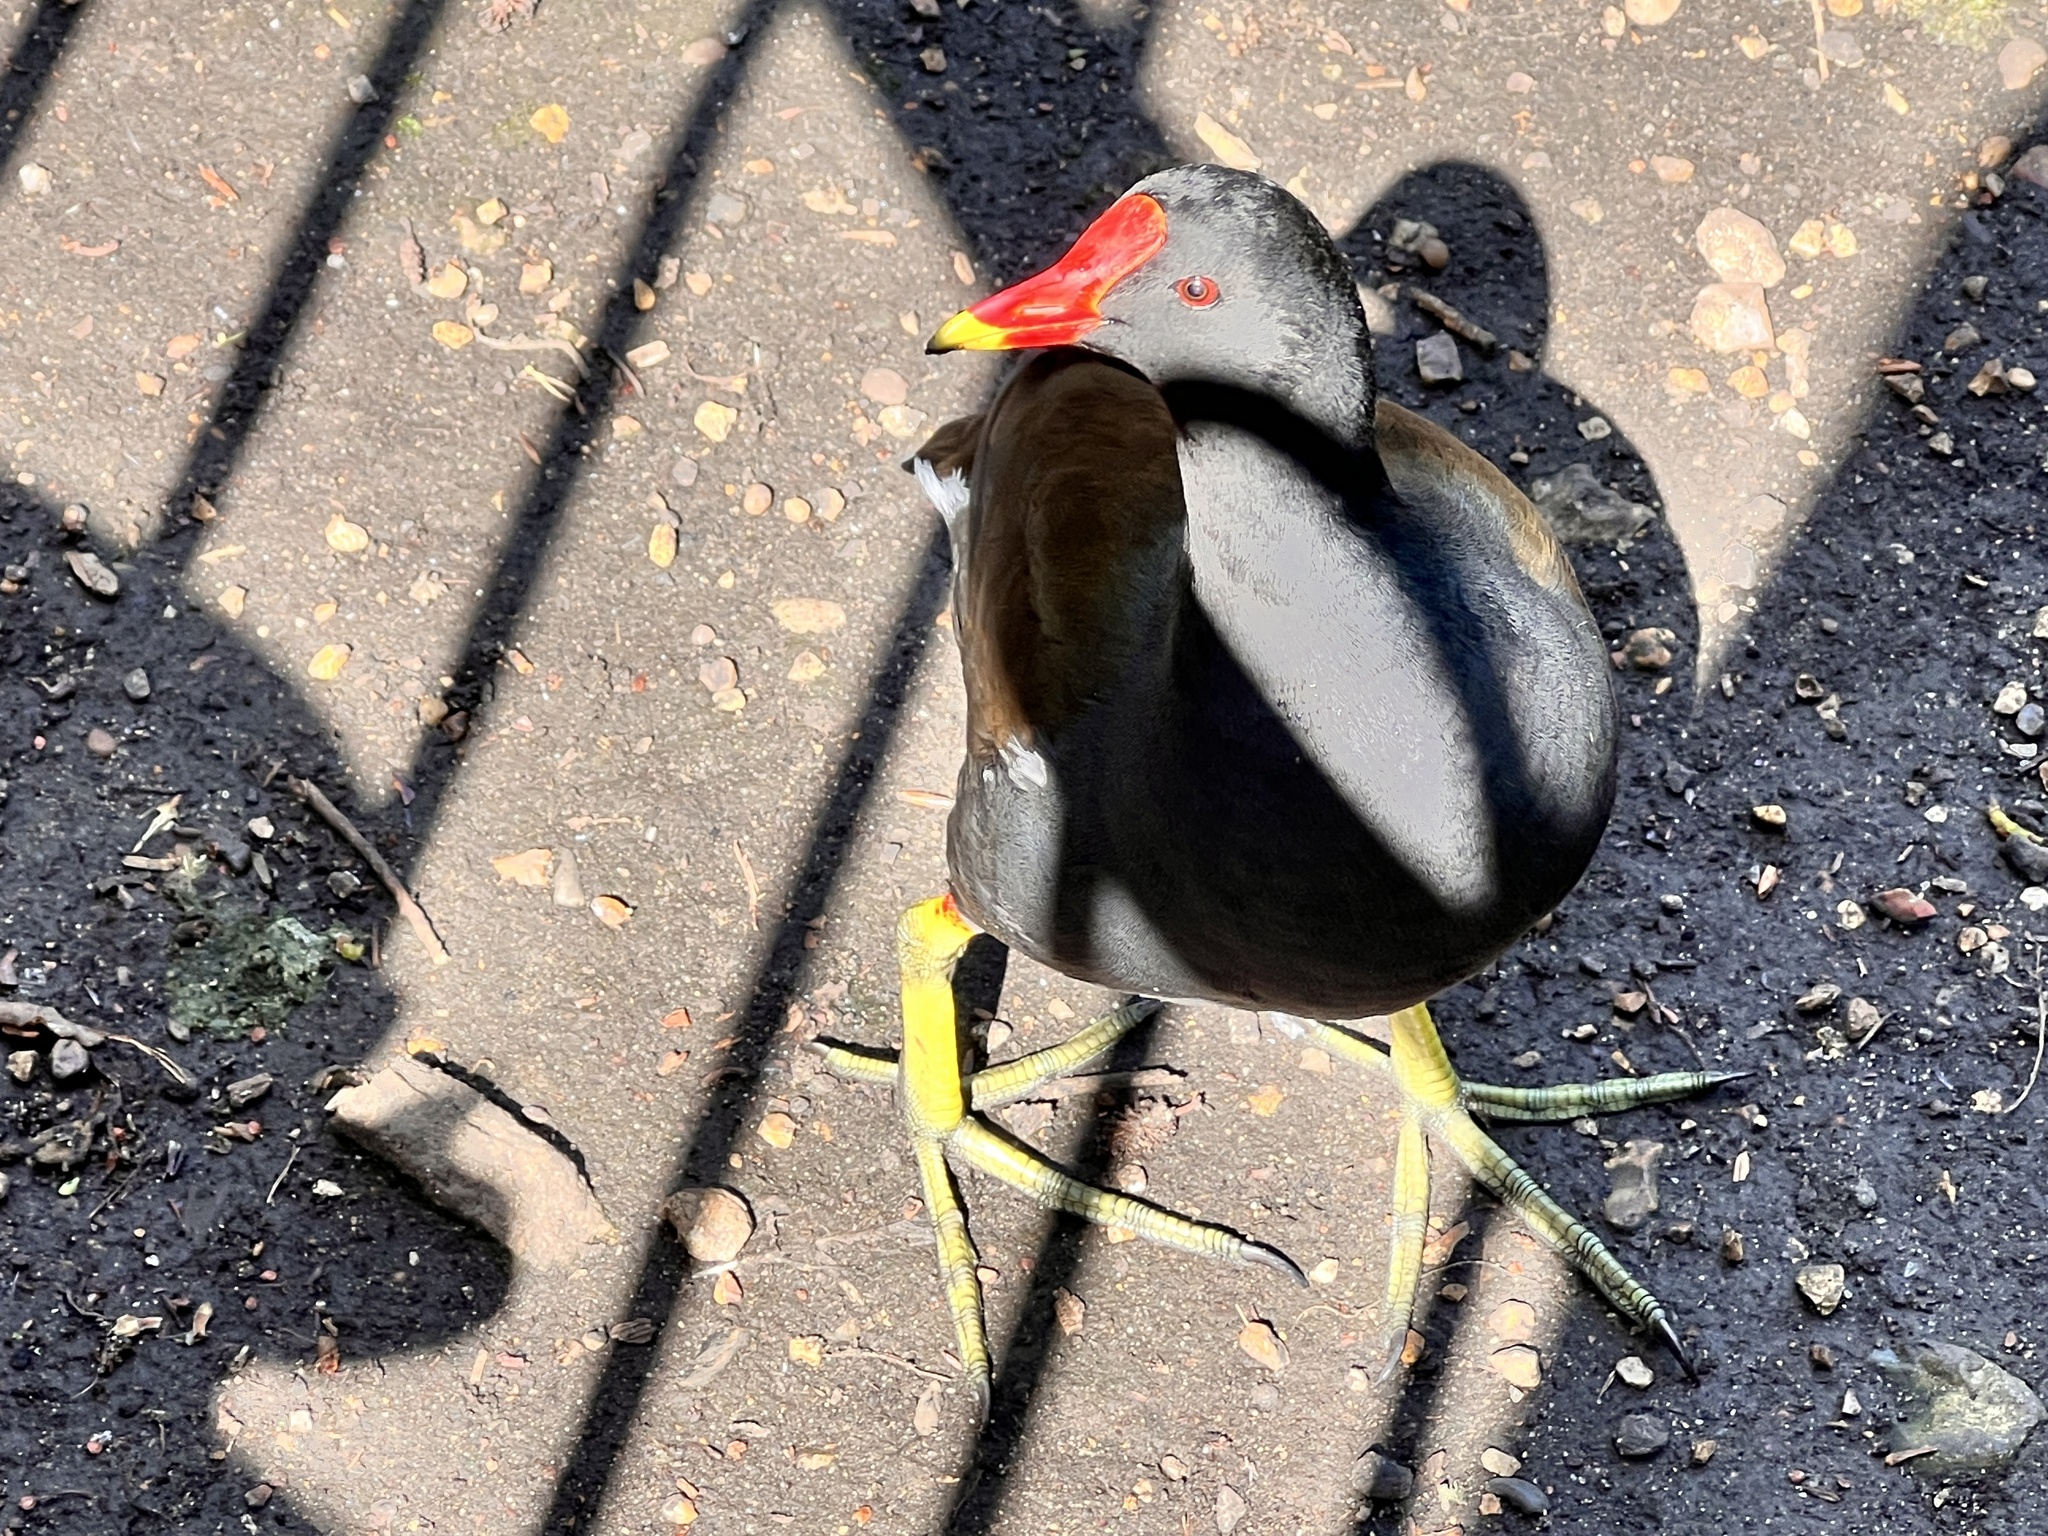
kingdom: Animalia
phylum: Chordata
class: Aves
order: Gruiformes
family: Rallidae
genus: Gallinula
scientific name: Gallinula chloropus
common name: Common moorhen
